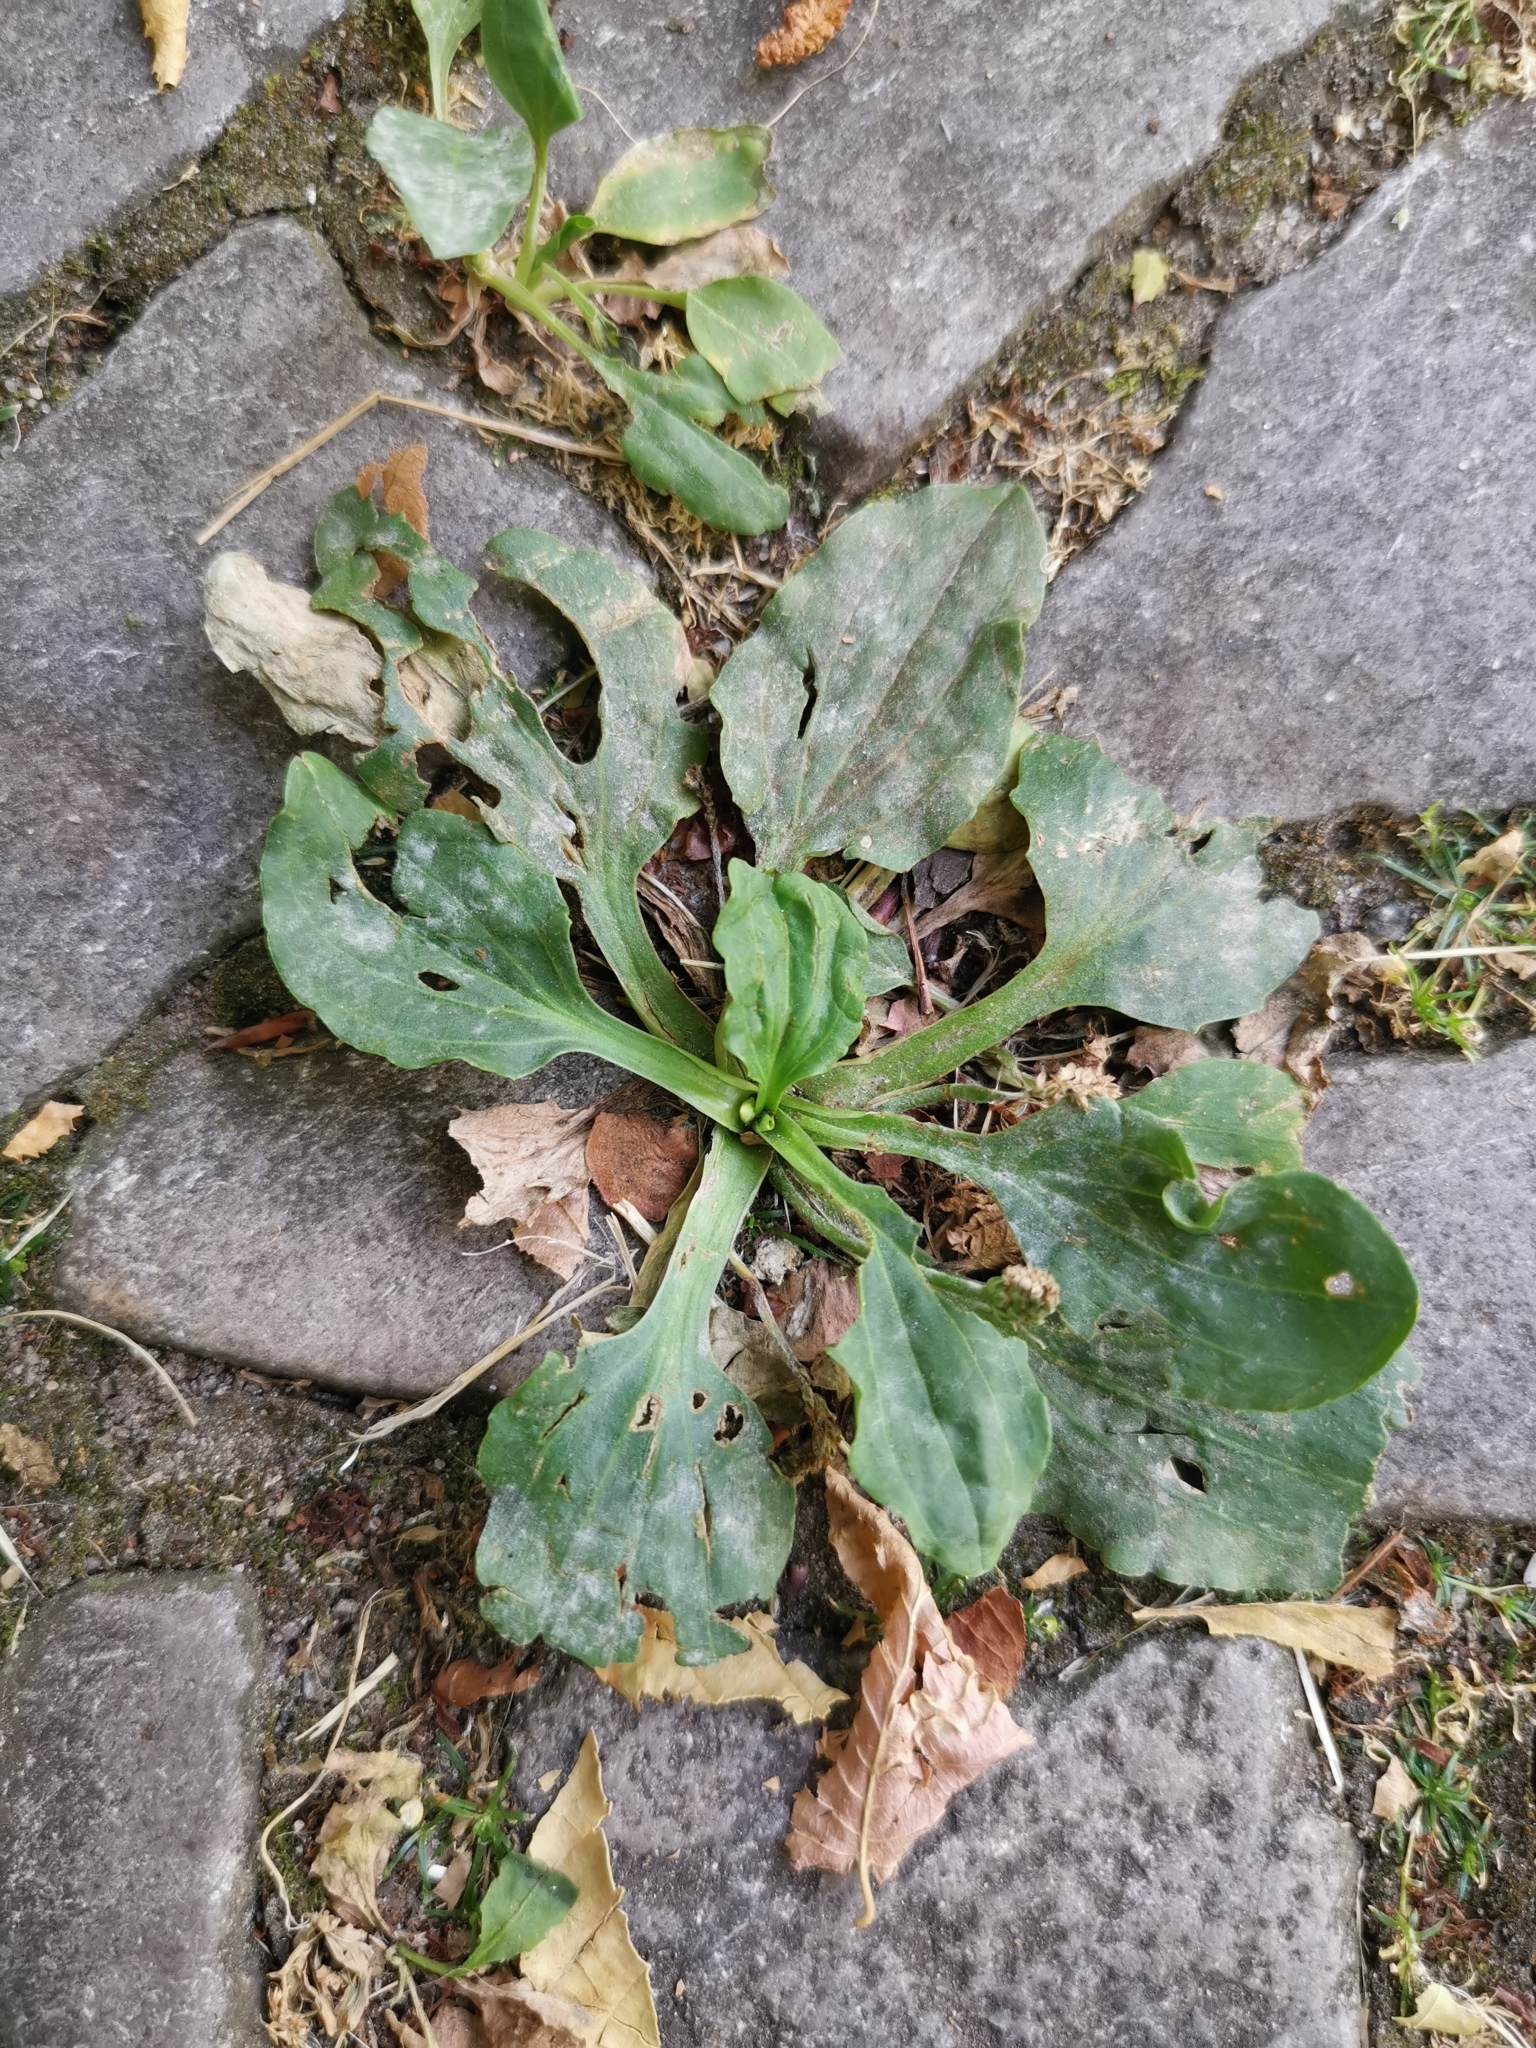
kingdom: Plantae
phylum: Tracheophyta
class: Magnoliopsida
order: Lamiales
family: Plantaginaceae
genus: Plantago
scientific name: Plantago major
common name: Common plantain
